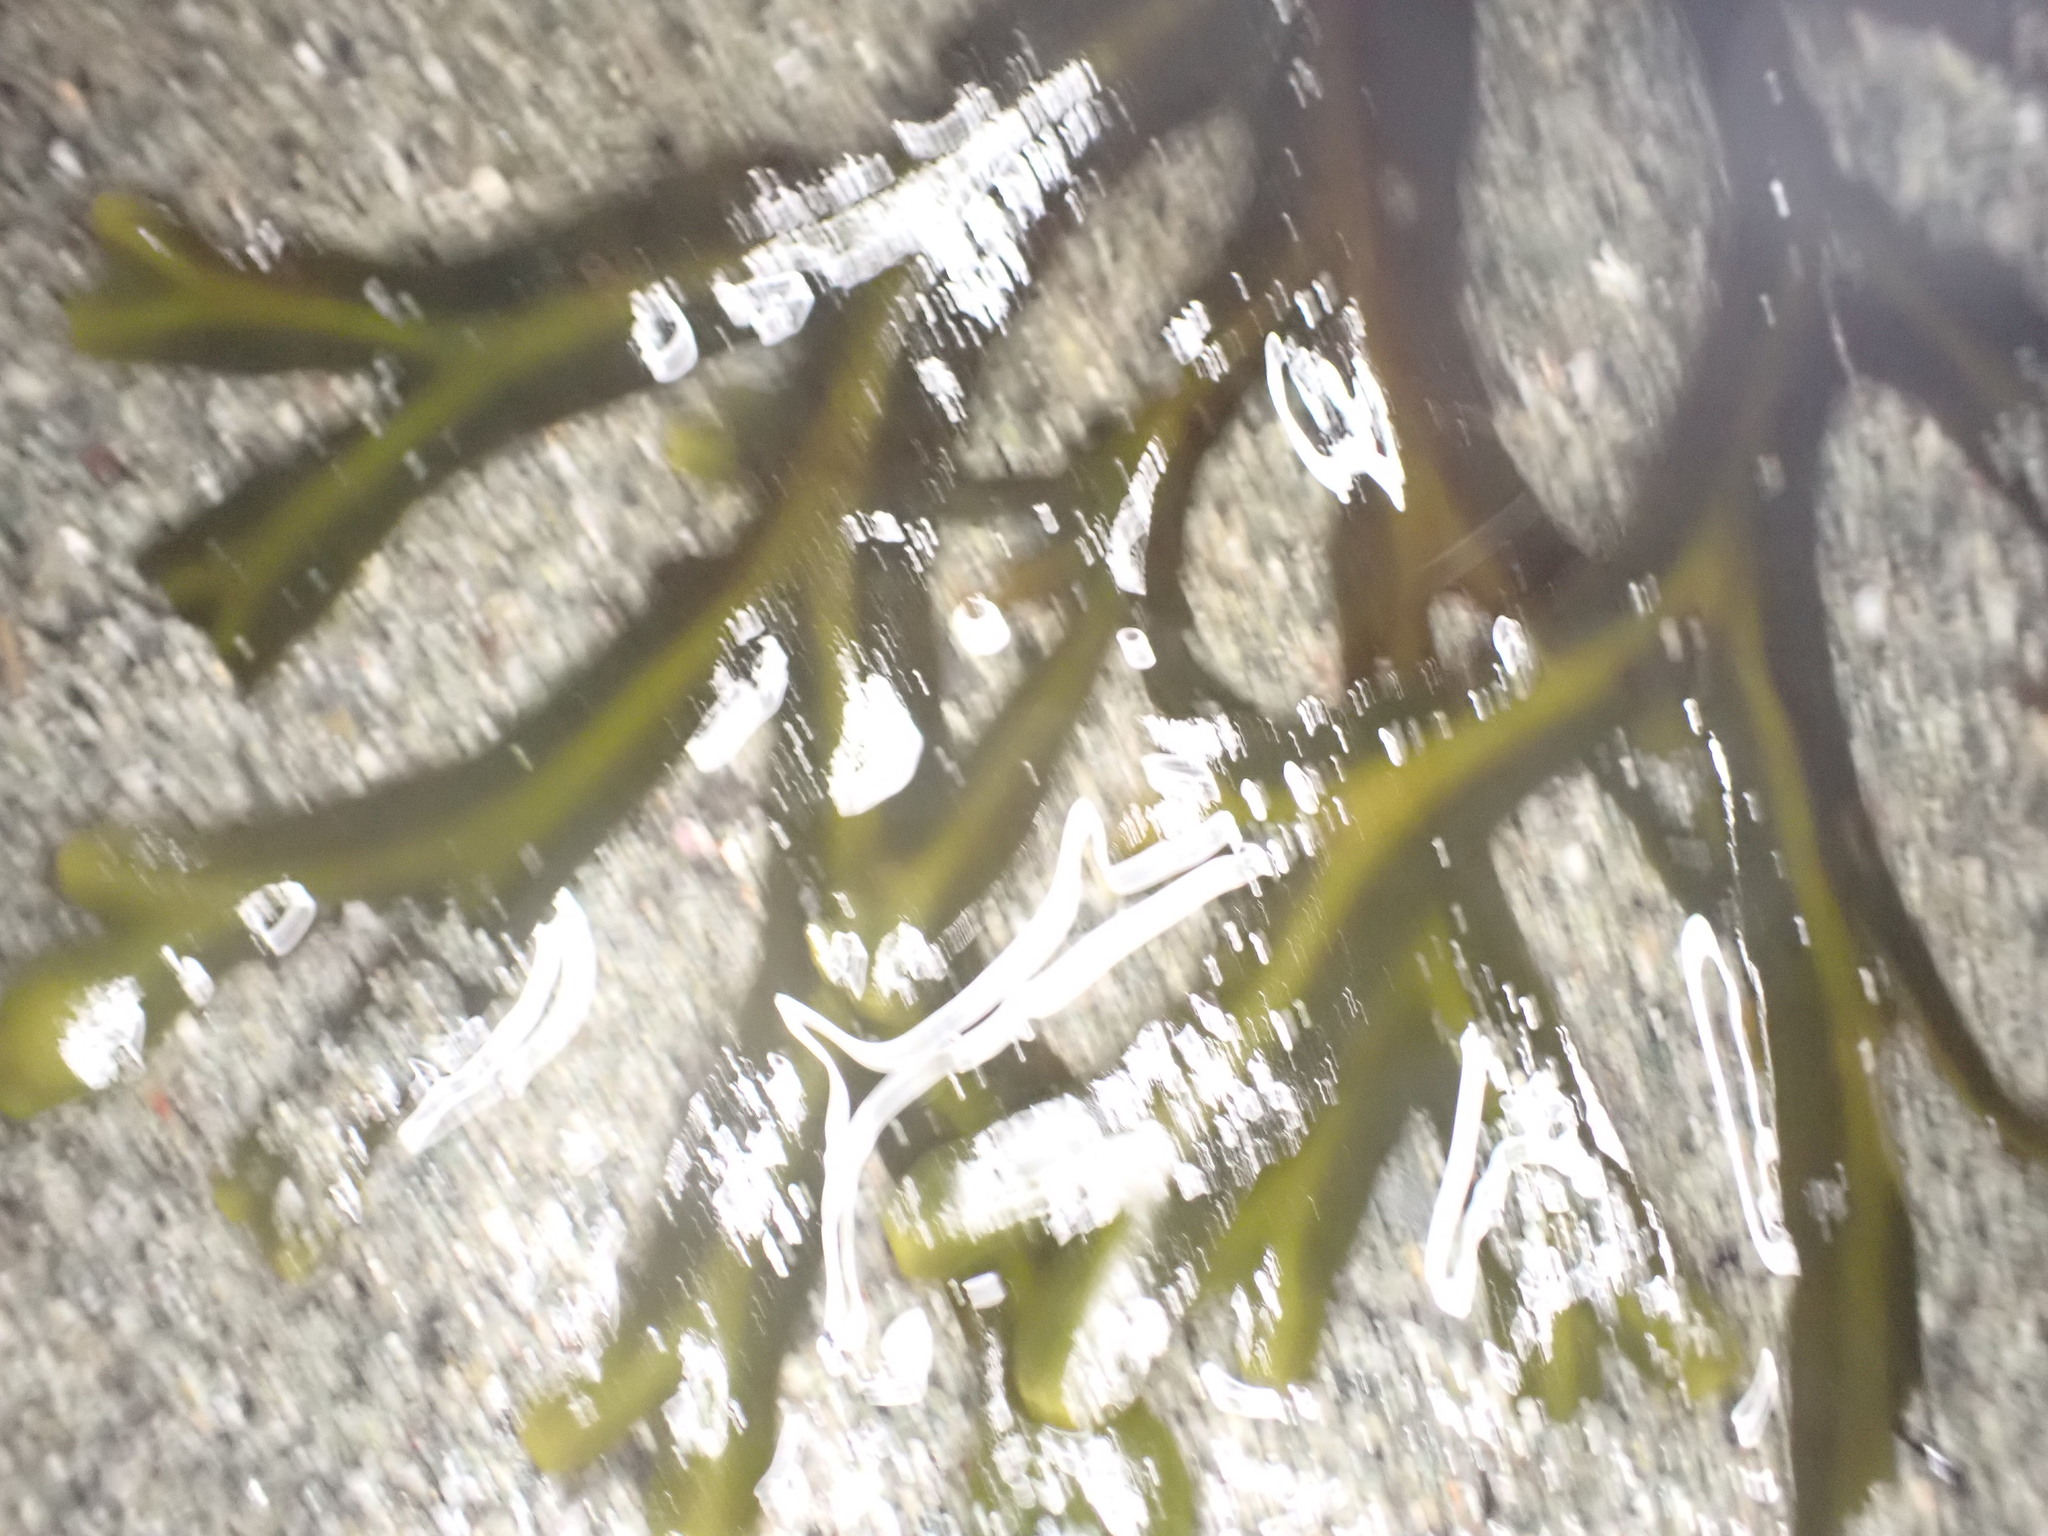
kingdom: Chromista
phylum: Ochrophyta
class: Phaeophyceae
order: Fucales
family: Fucaceae
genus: Fucus
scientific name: Fucus distichus
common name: Rockweed
